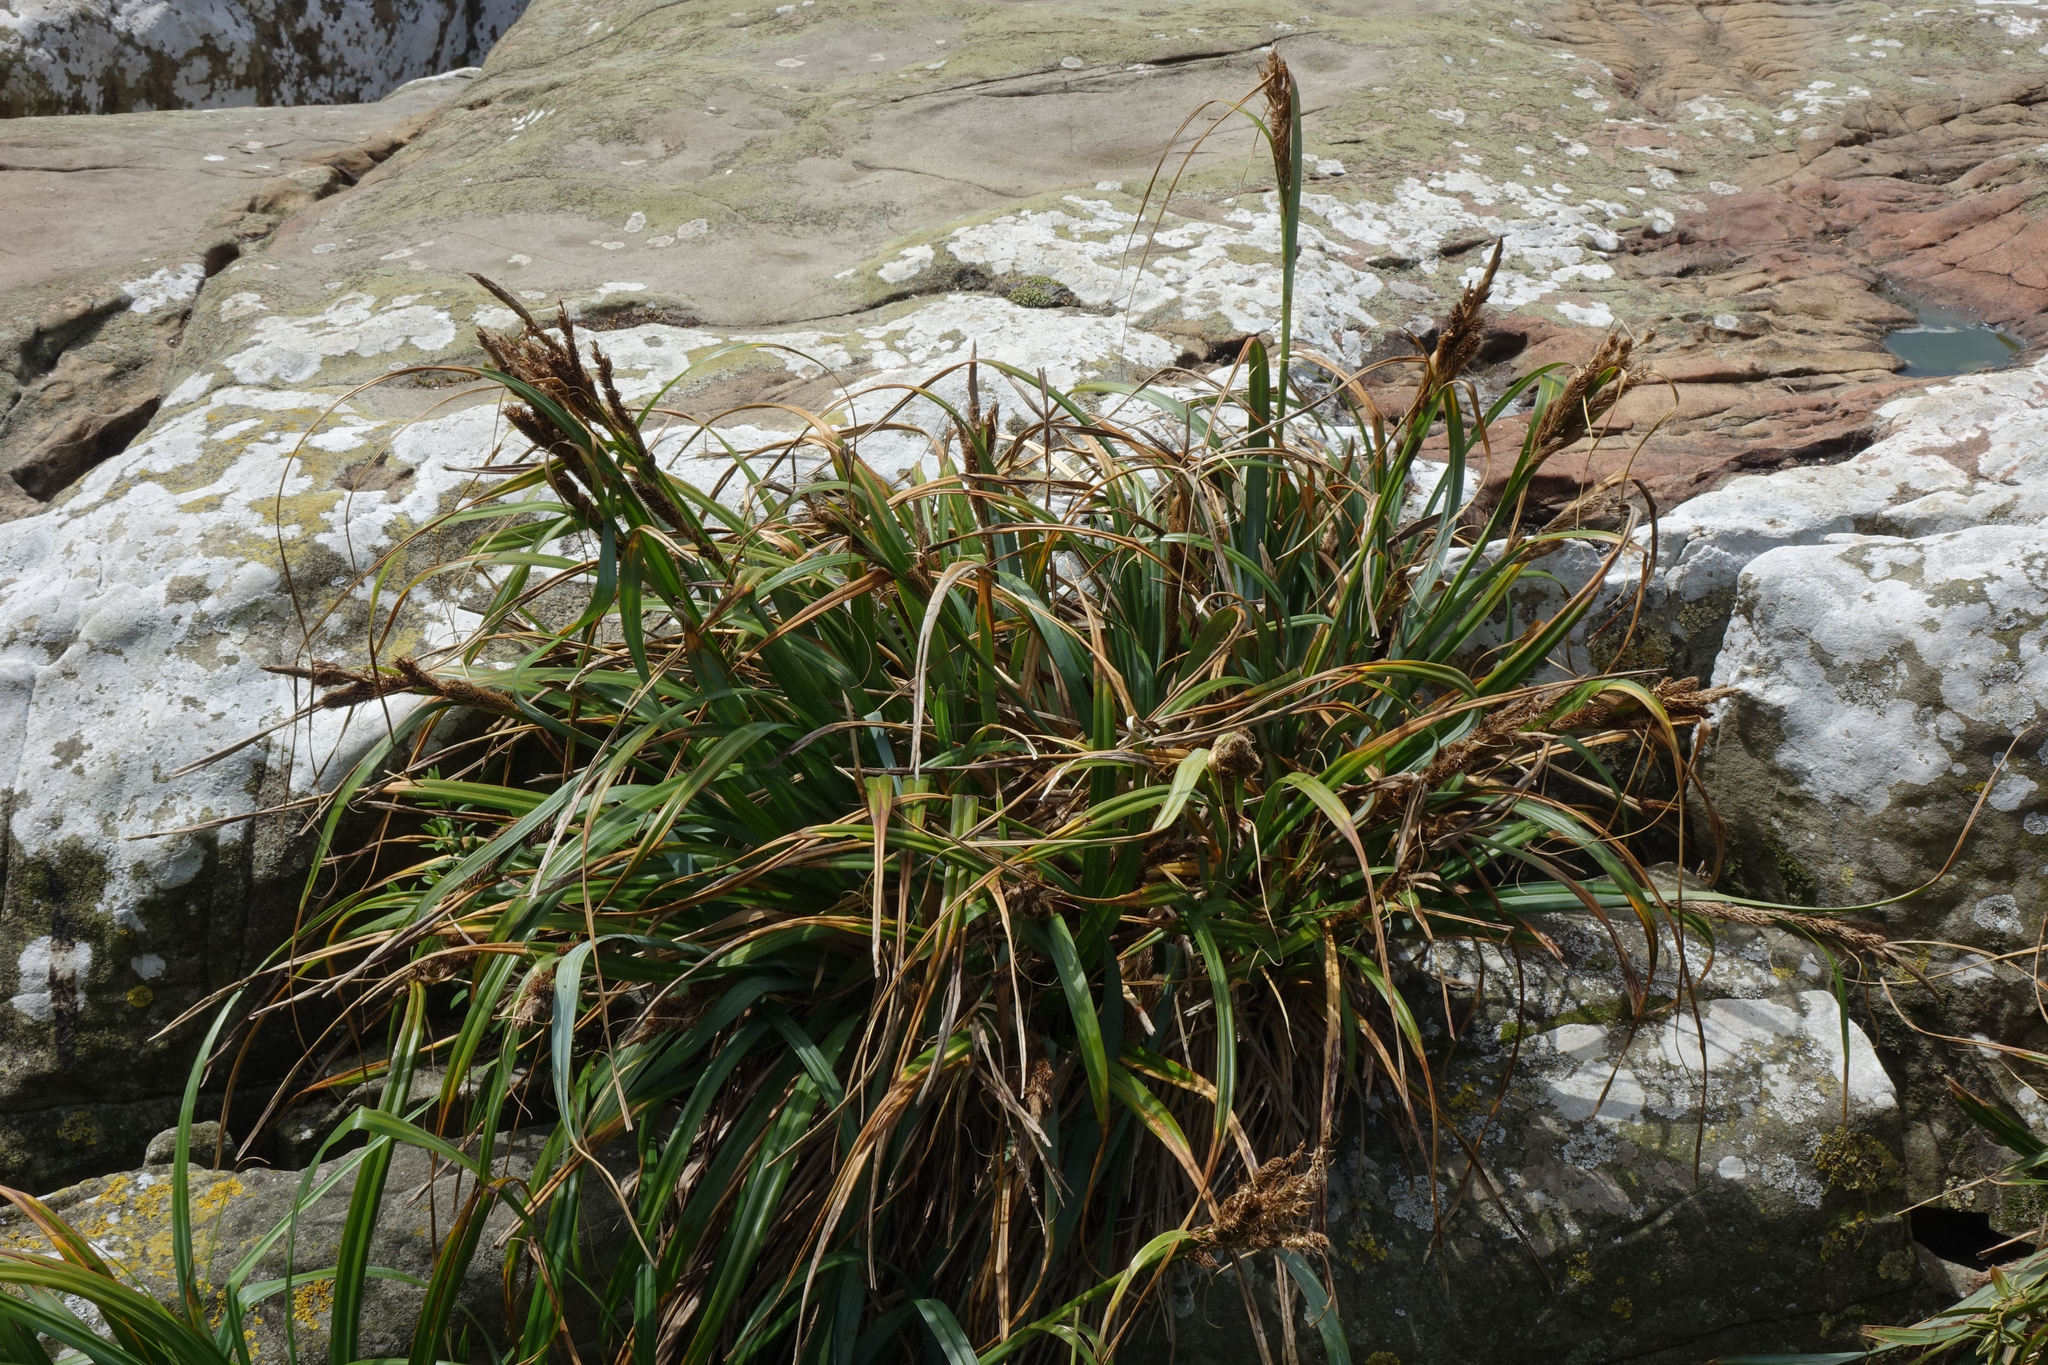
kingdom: Plantae
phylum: Tracheophyta
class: Liliopsida
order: Poales
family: Cyperaceae
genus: Carex
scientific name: Carex trifida
